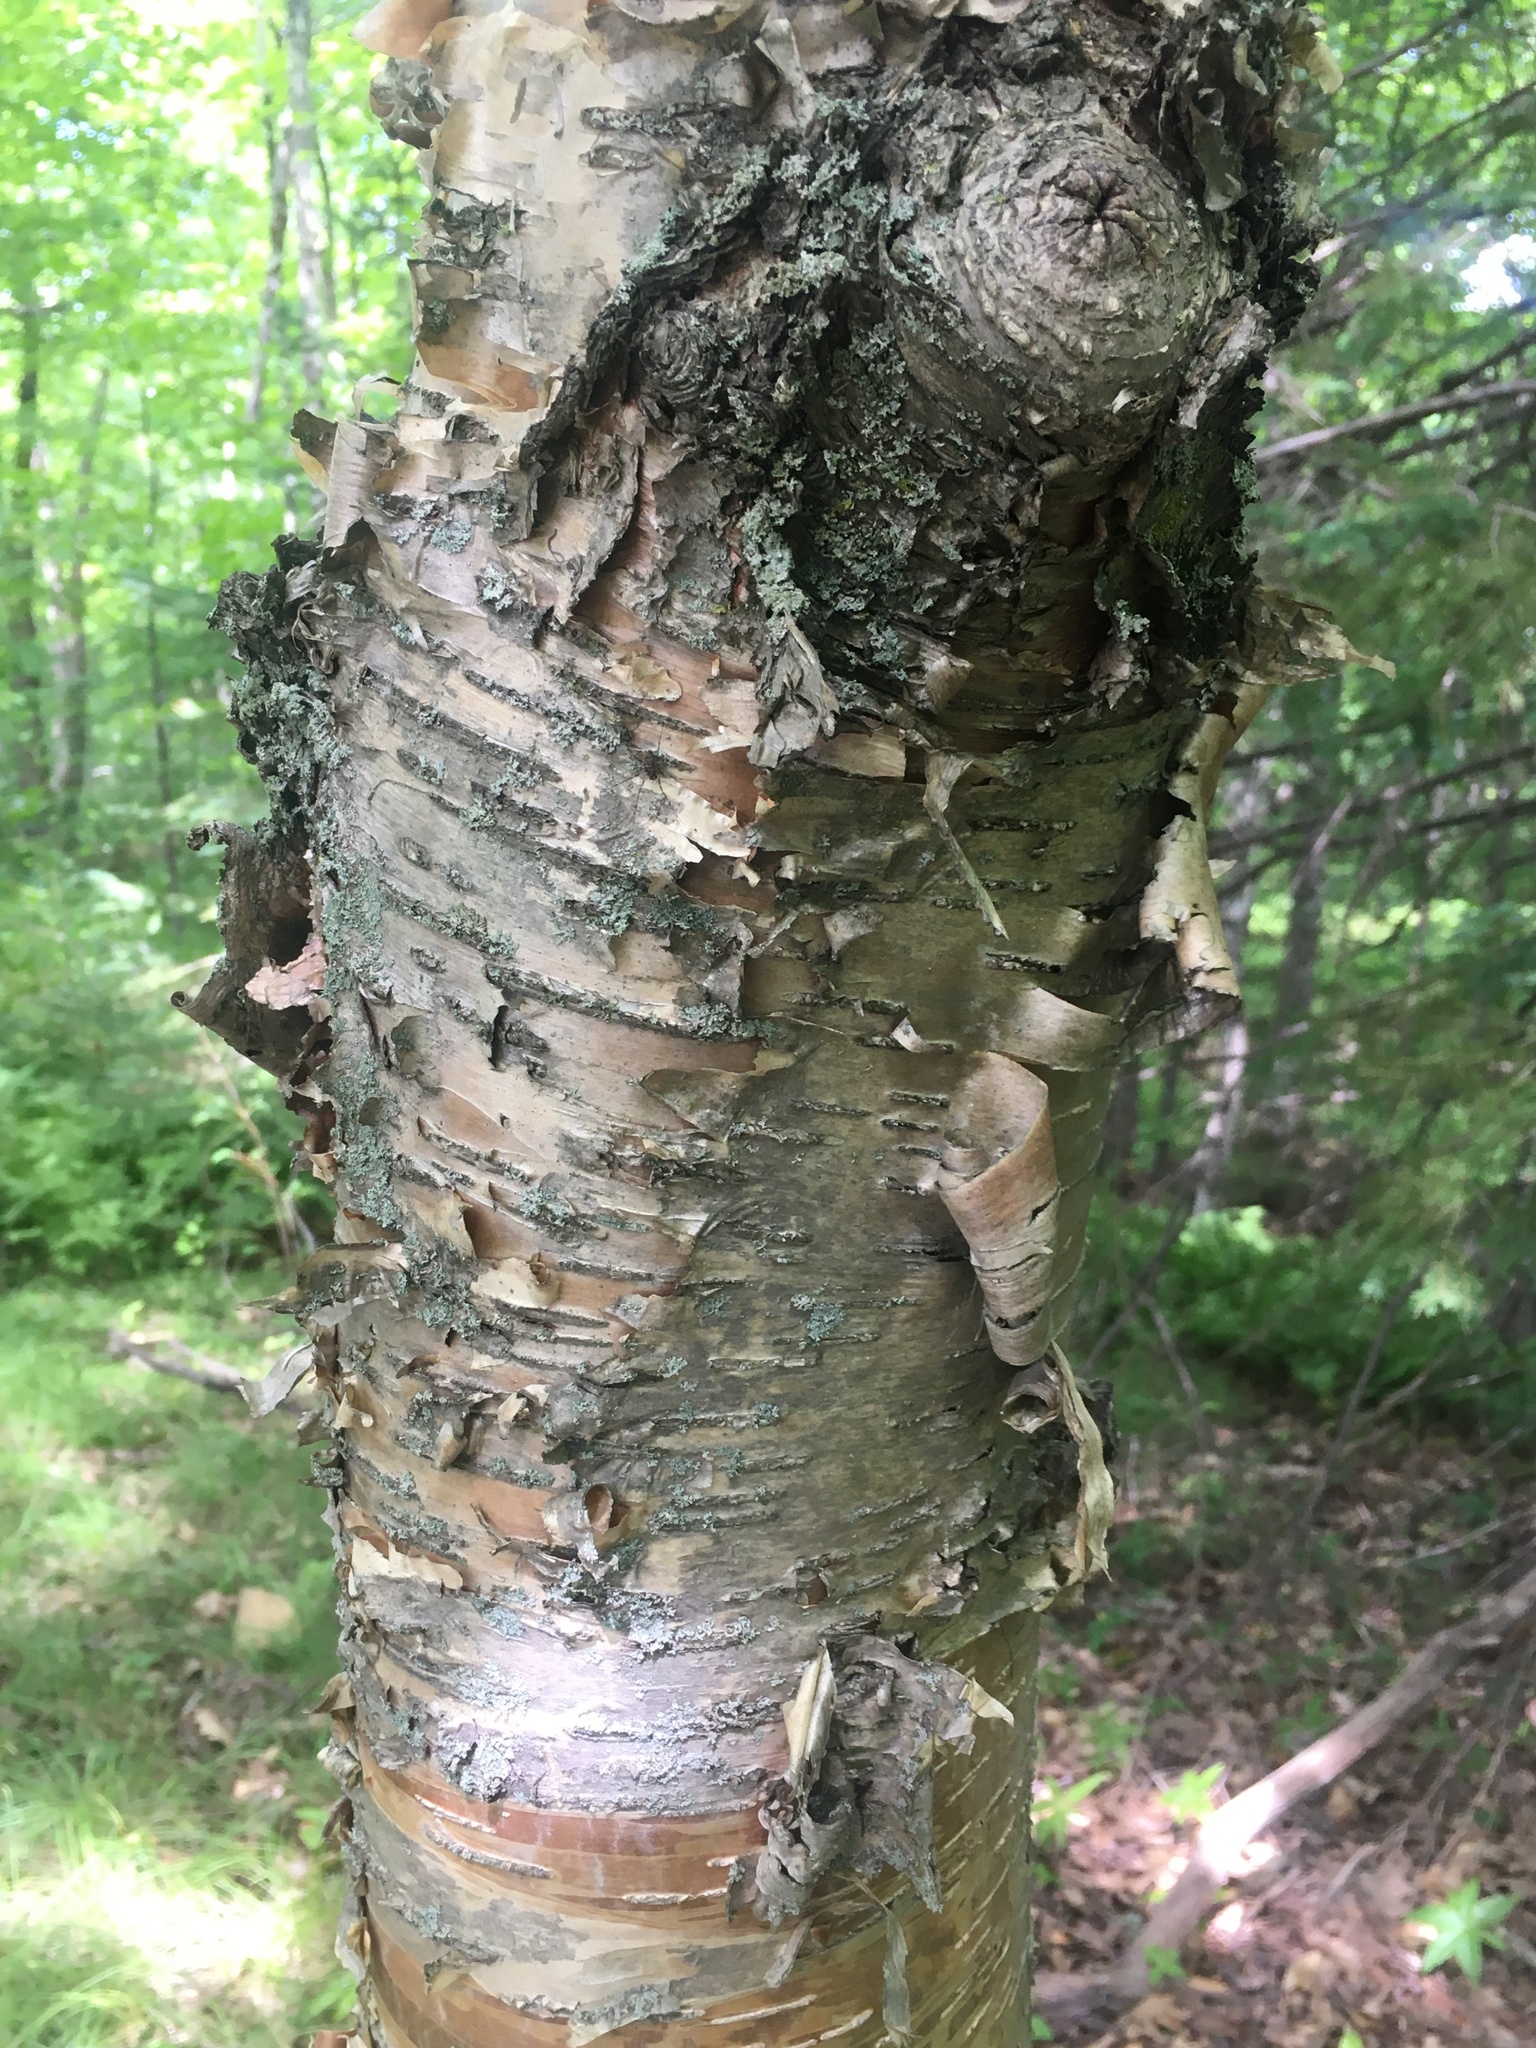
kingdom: Plantae
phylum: Tracheophyta
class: Magnoliopsida
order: Fagales
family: Betulaceae
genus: Betula
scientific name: Betula alleghaniensis
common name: Yellow birch
